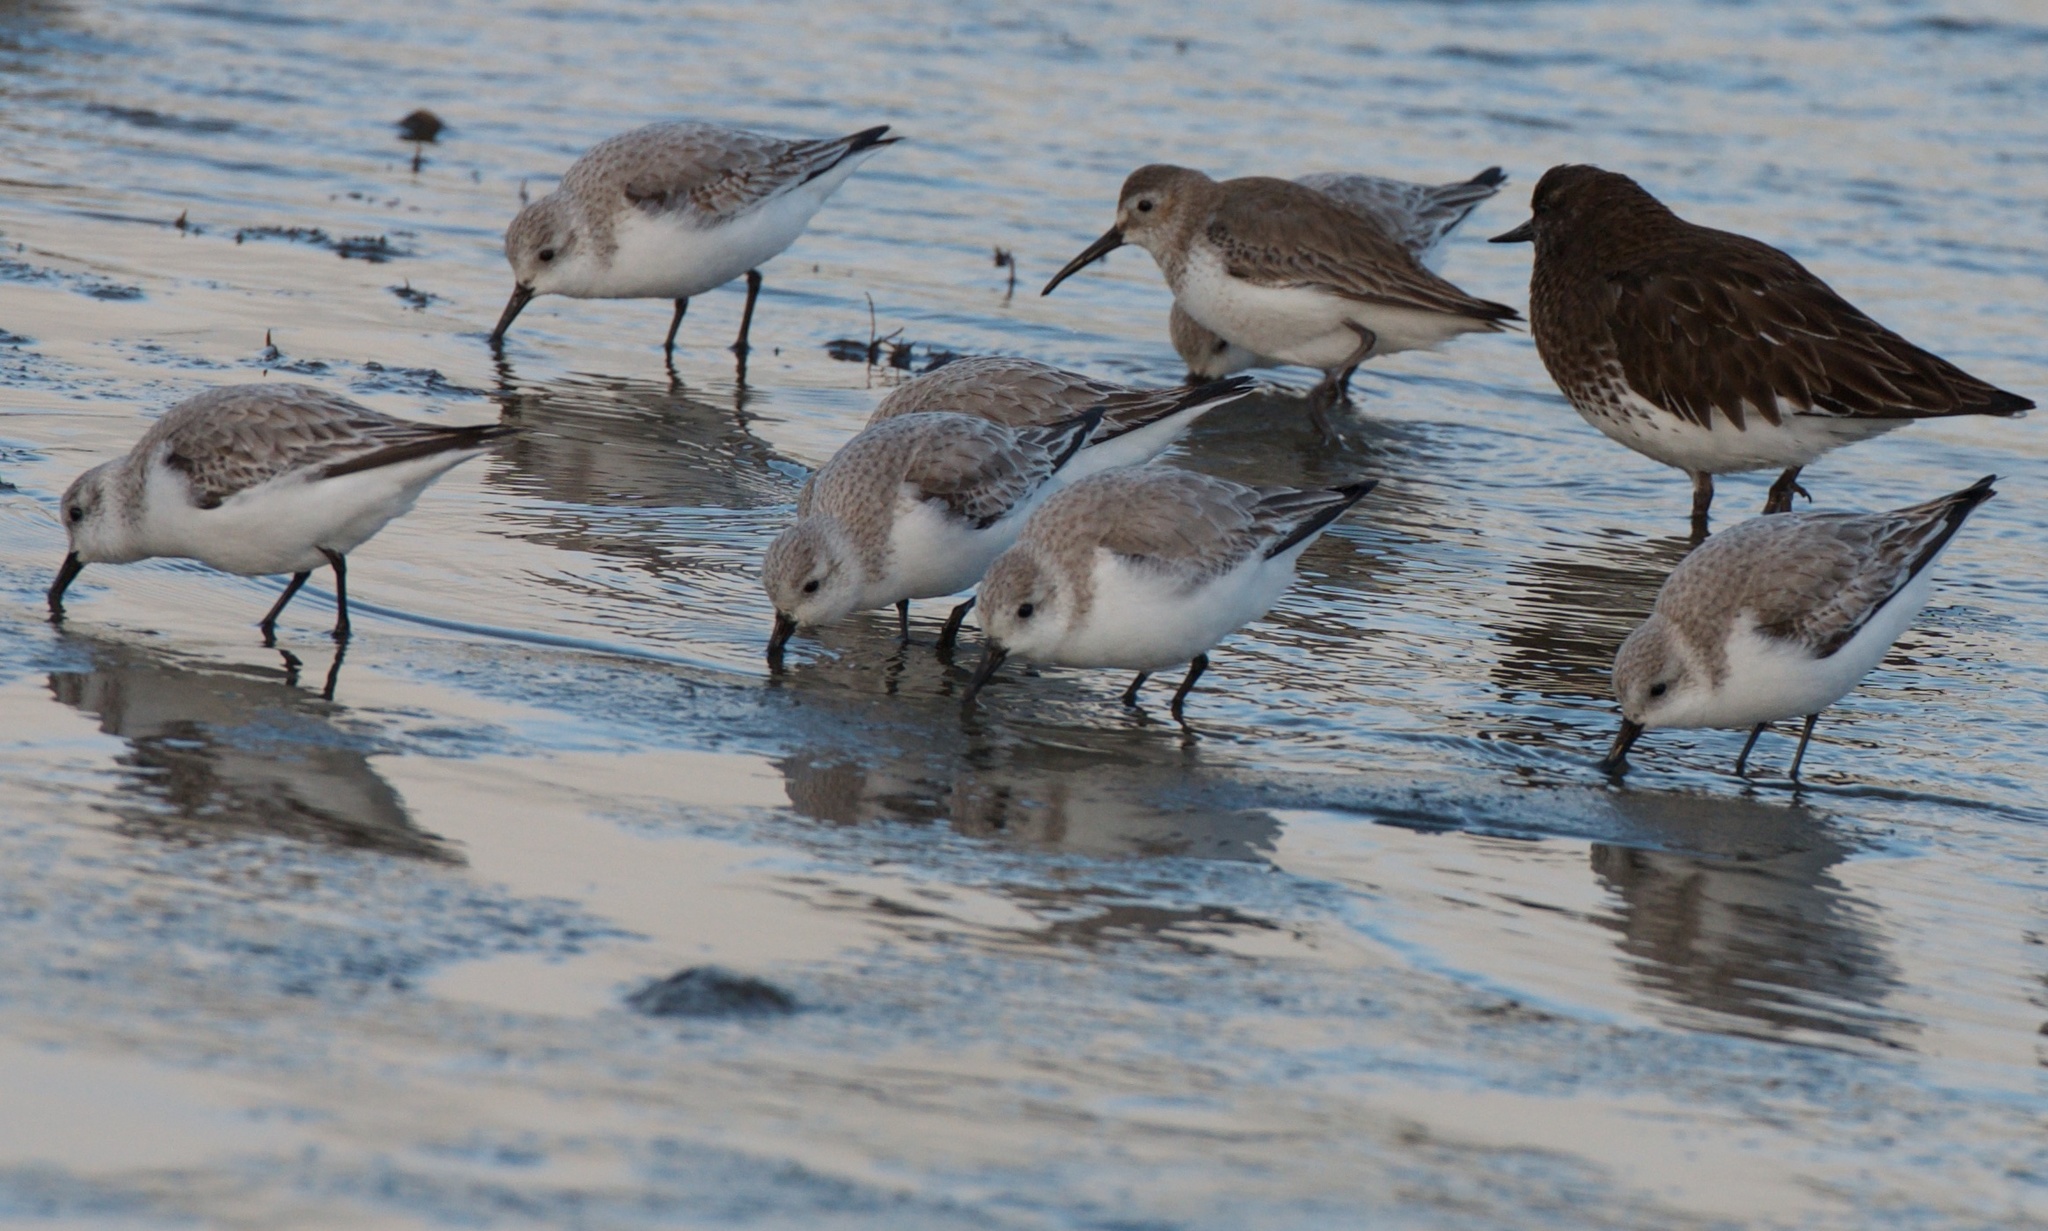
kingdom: Animalia
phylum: Chordata
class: Aves
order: Charadriiformes
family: Scolopacidae
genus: Calidris
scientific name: Calidris alba
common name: Sanderling
